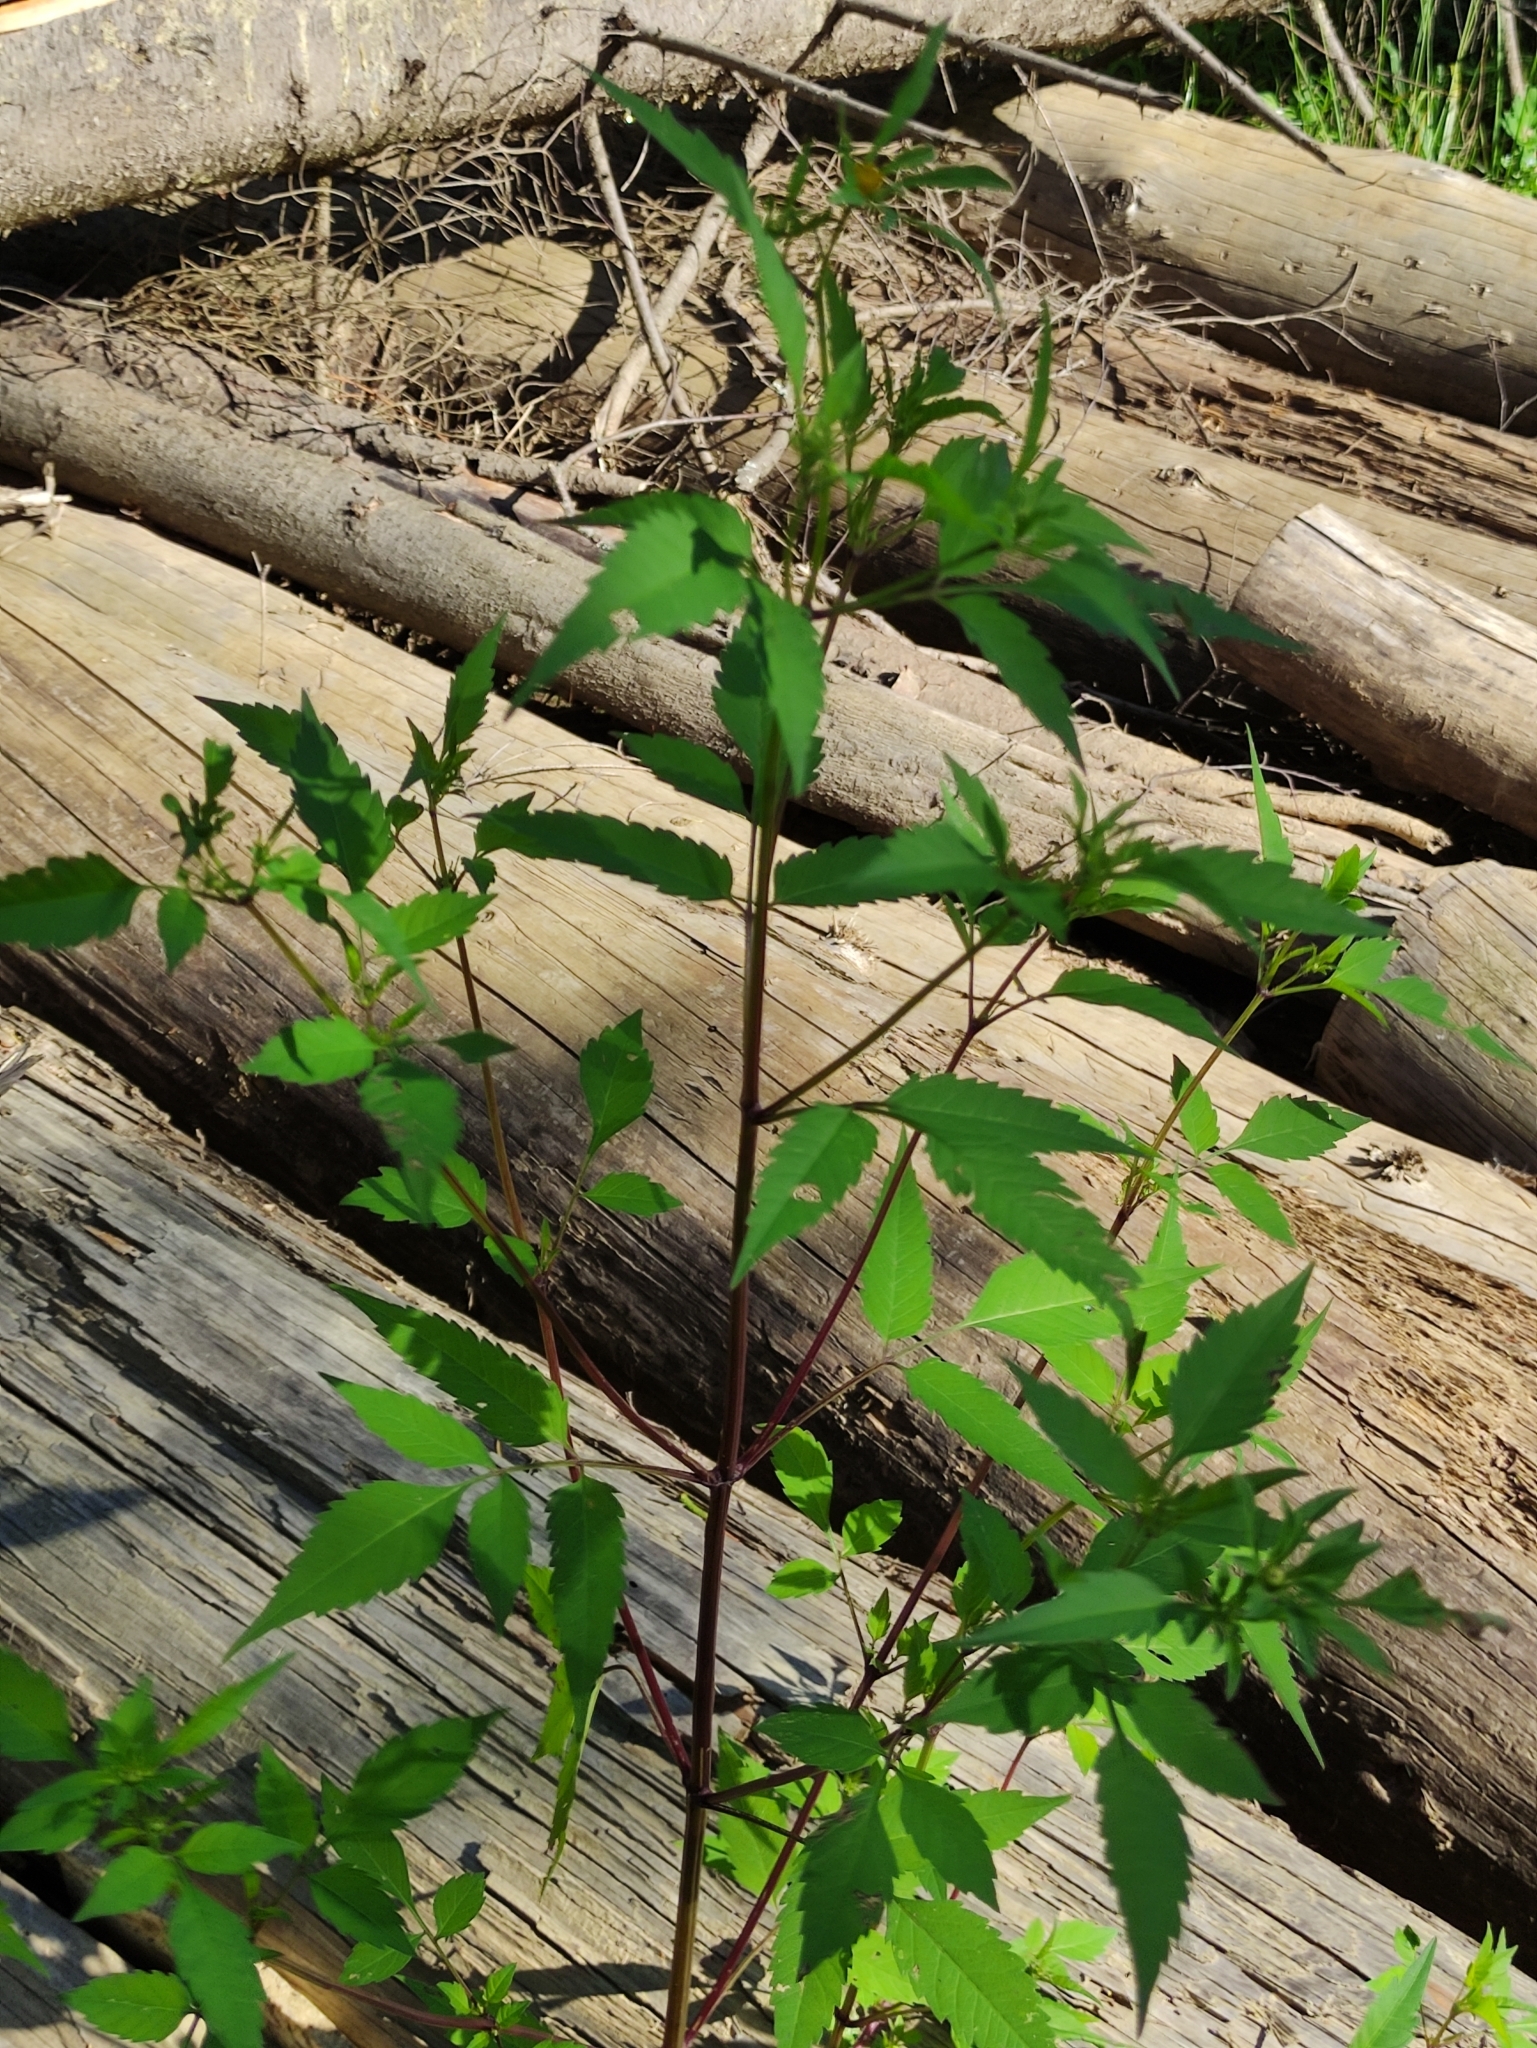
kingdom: Plantae
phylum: Tracheophyta
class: Magnoliopsida
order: Asterales
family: Asteraceae
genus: Bidens
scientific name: Bidens frondosa
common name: Beggarticks
